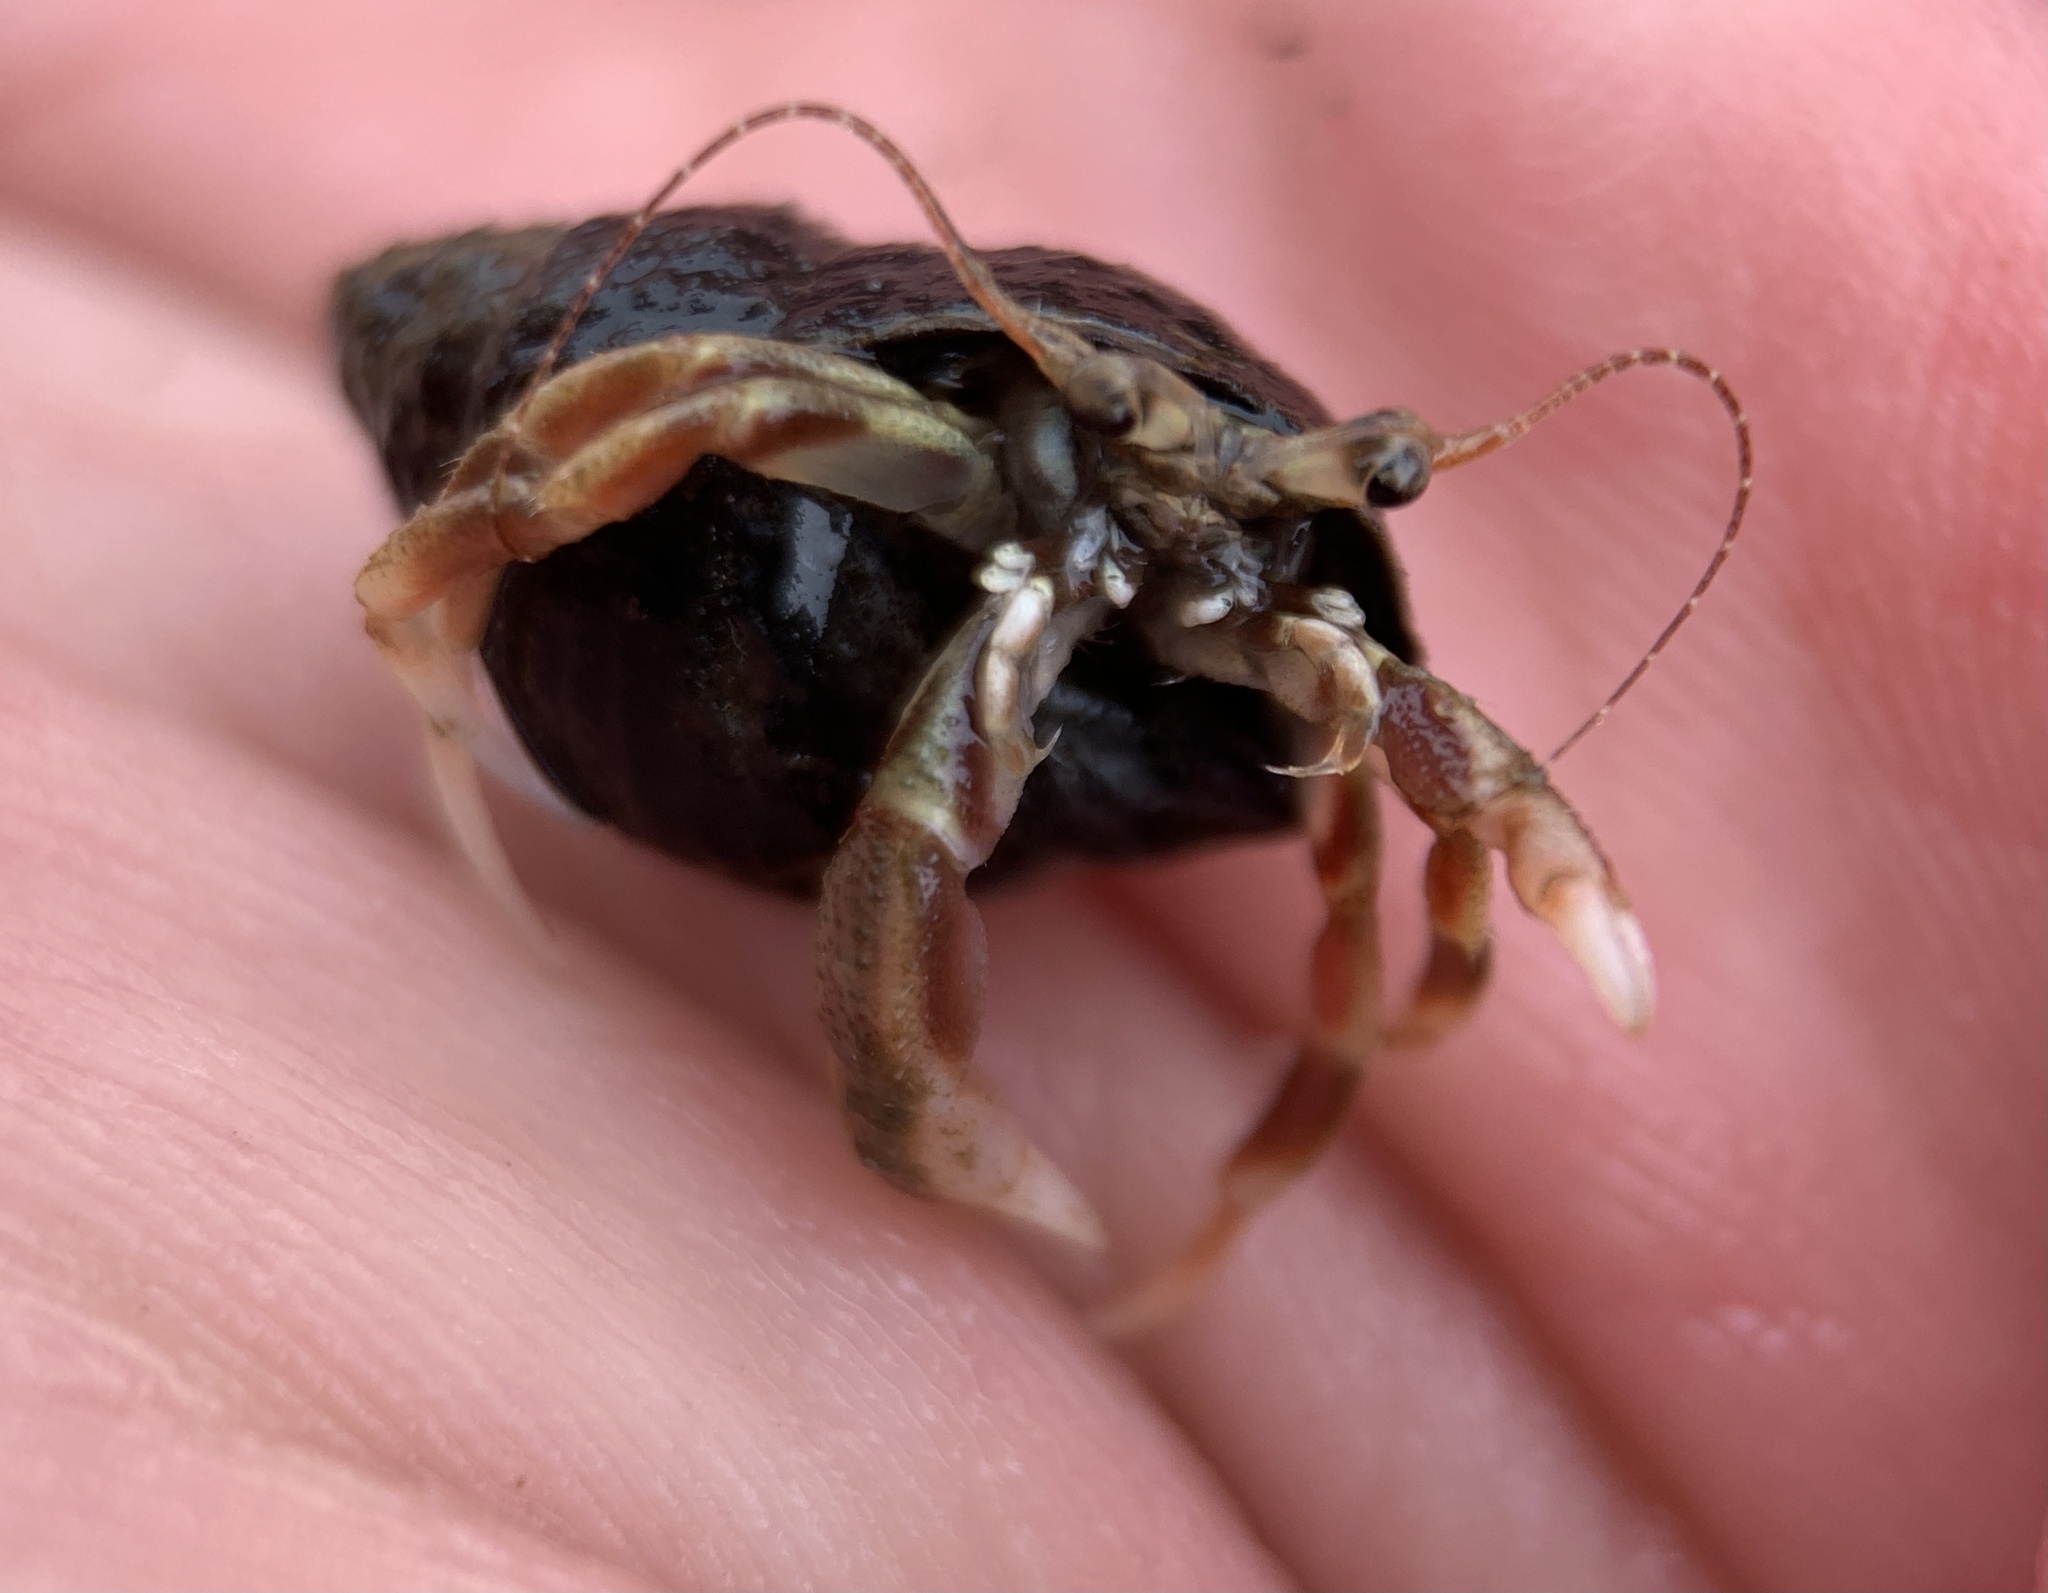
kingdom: Animalia
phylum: Arthropoda
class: Malacostraca
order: Decapoda
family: Paguridae
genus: Pagurus
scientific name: Pagurus longicarpus
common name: Long-armed hermit crab
